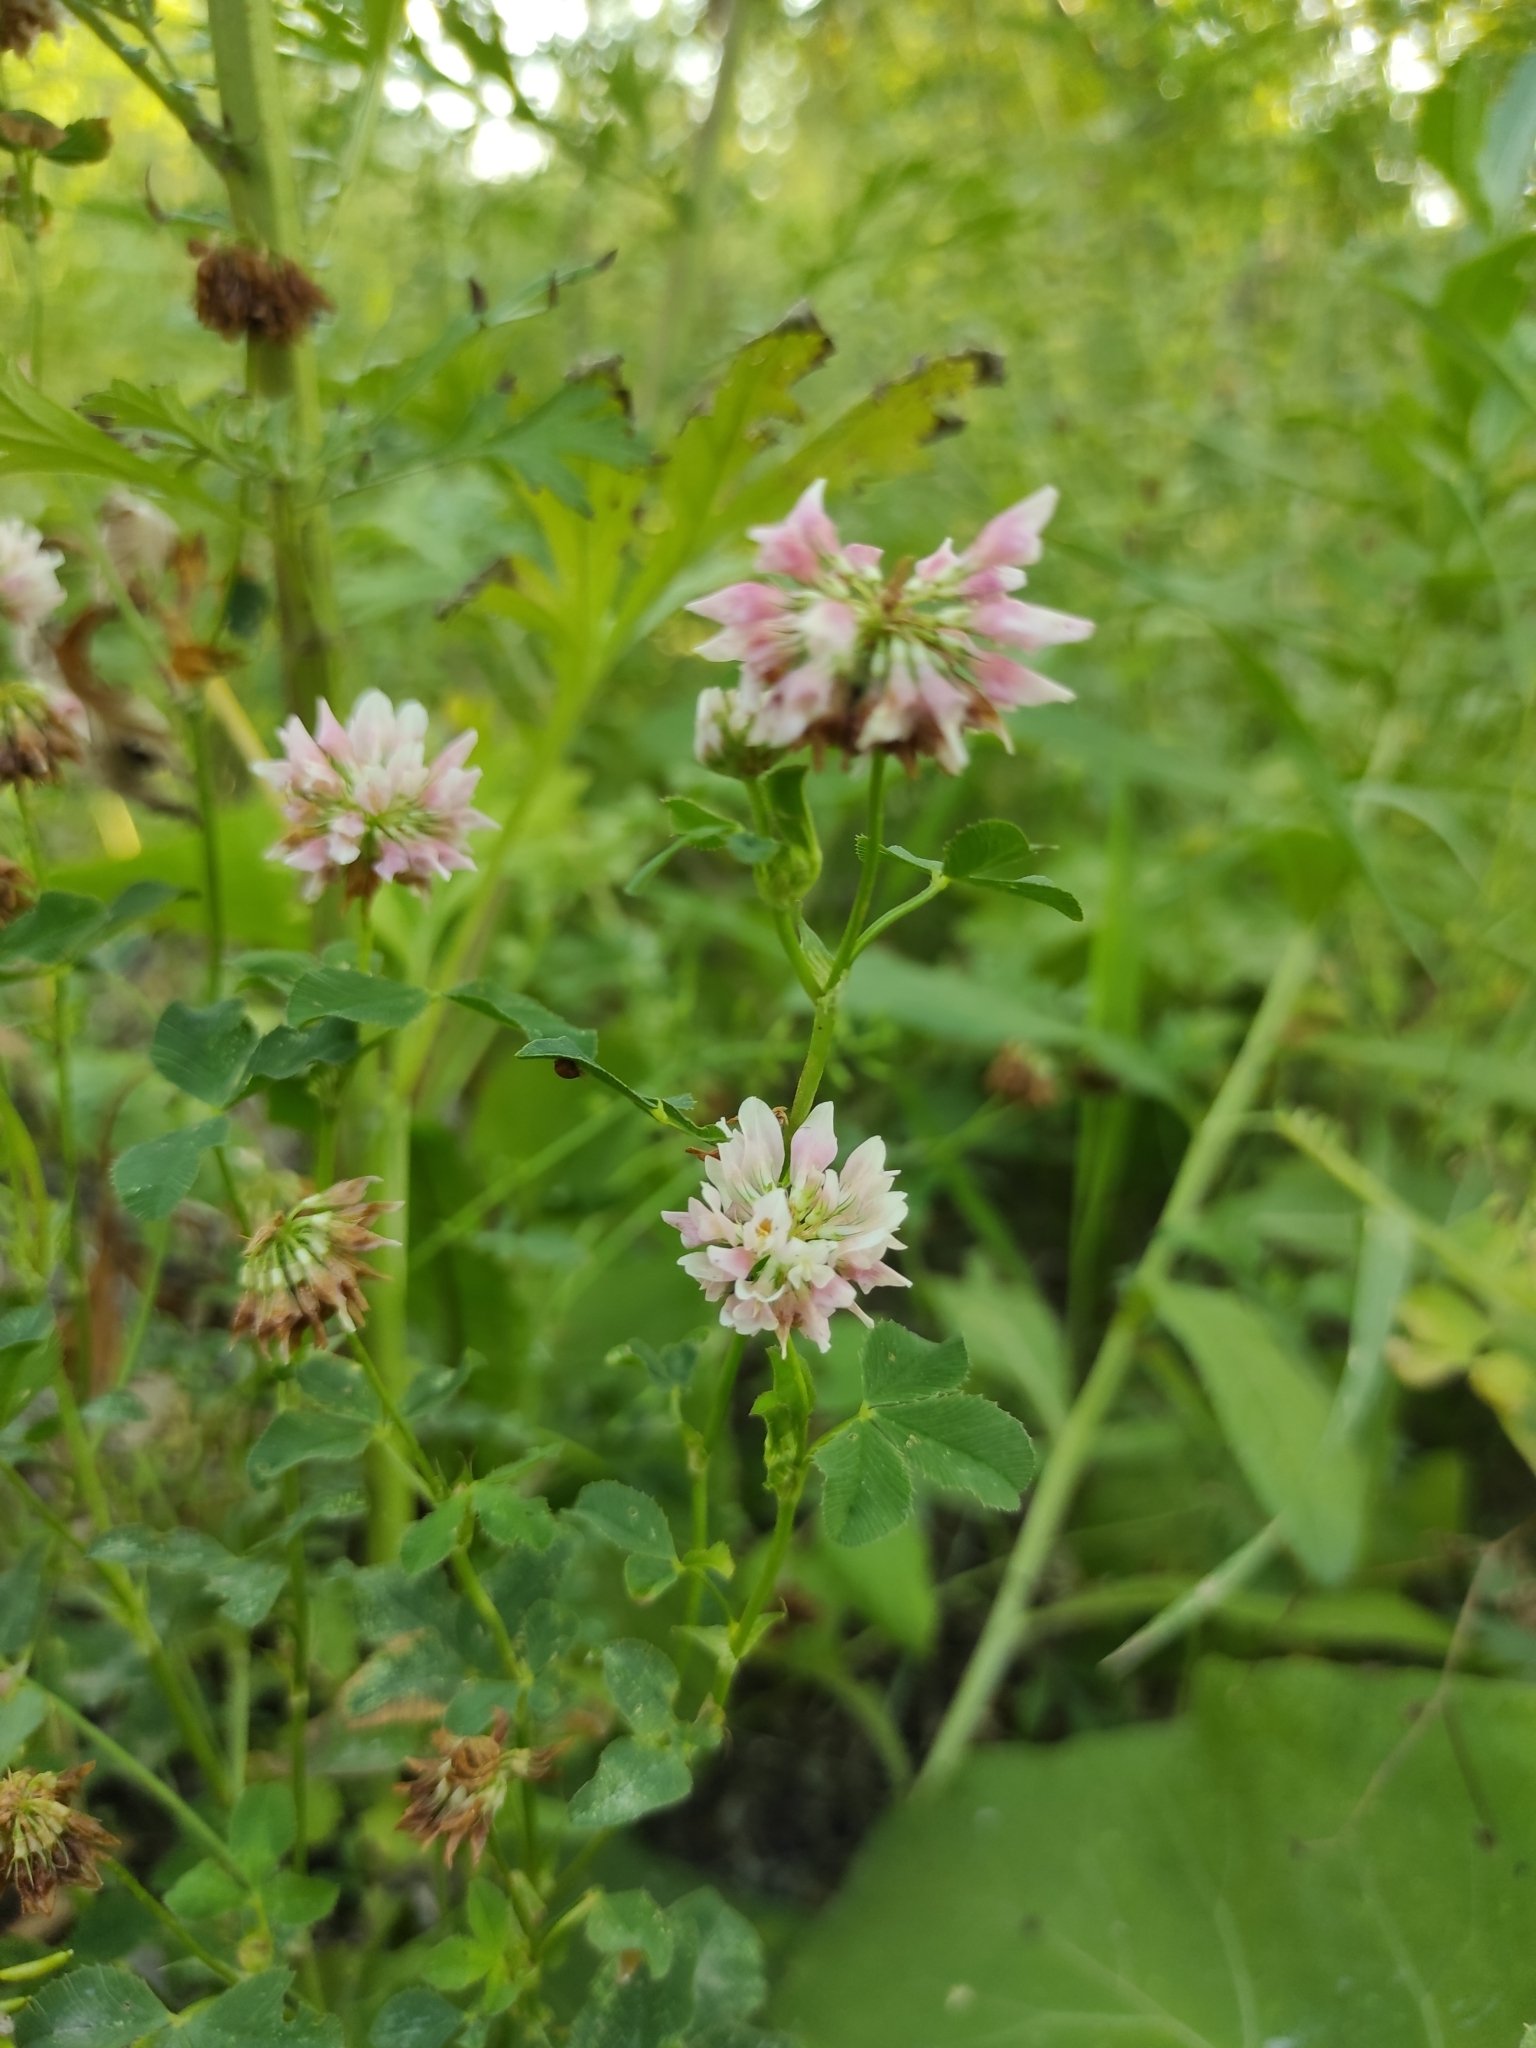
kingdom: Plantae
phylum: Tracheophyta
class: Magnoliopsida
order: Fabales
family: Fabaceae
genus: Trifolium
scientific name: Trifolium hybridum
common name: Alsike clover
